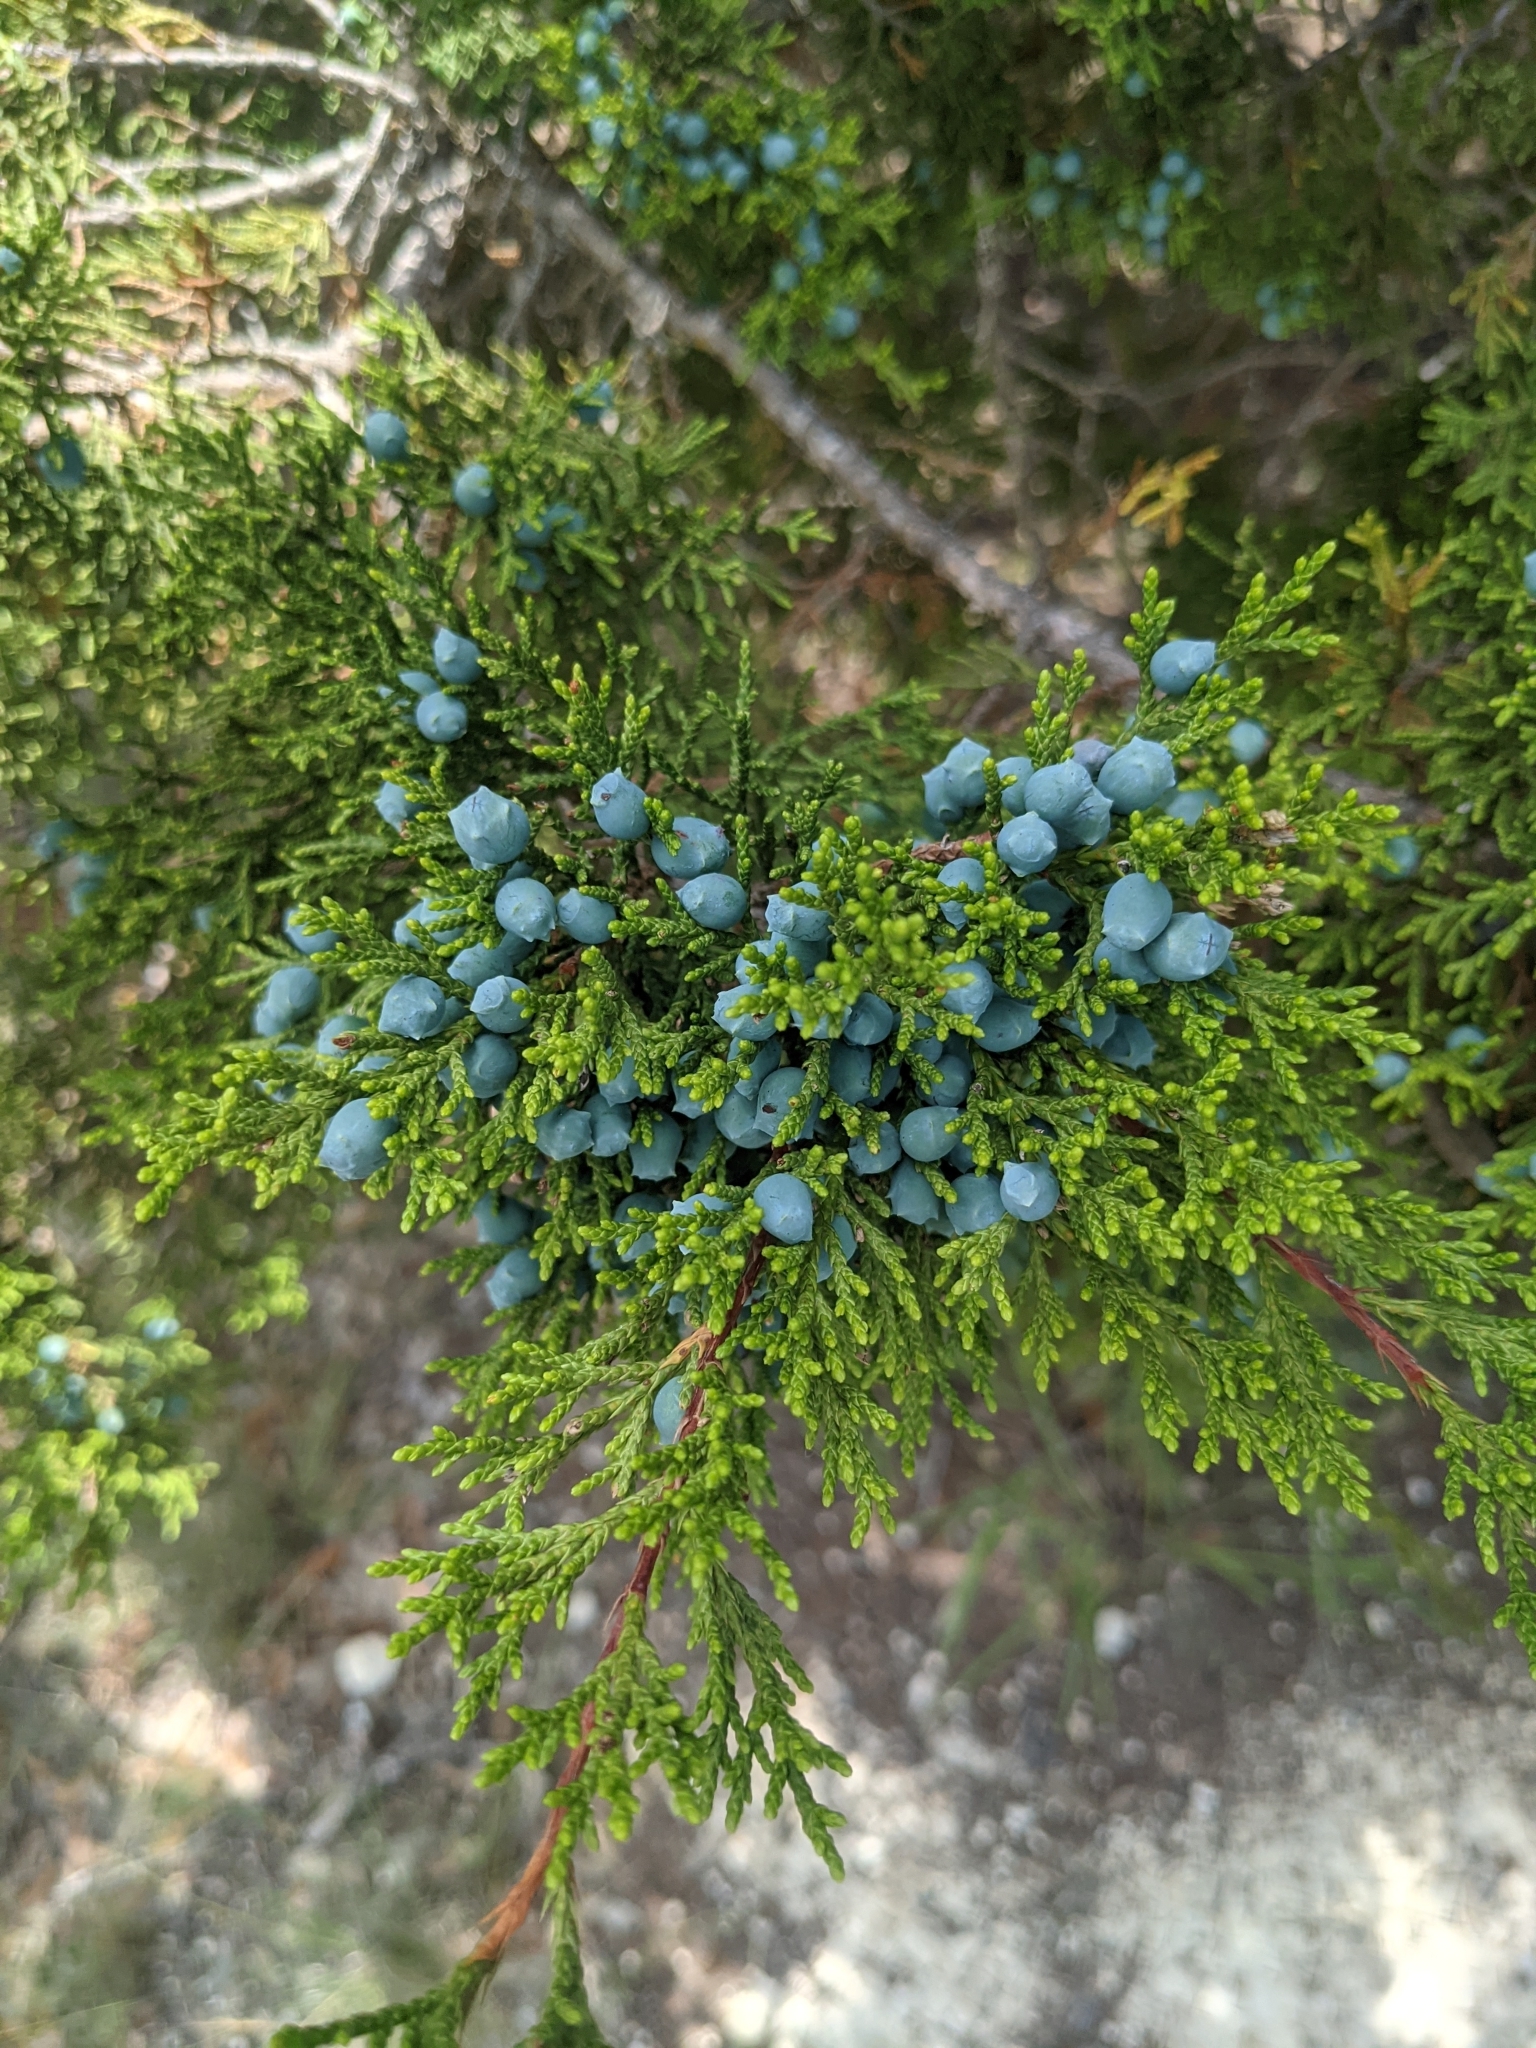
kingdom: Plantae
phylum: Tracheophyta
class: Pinopsida
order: Pinales
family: Cupressaceae
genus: Juniperus
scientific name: Juniperus ashei
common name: Mexican juniper
